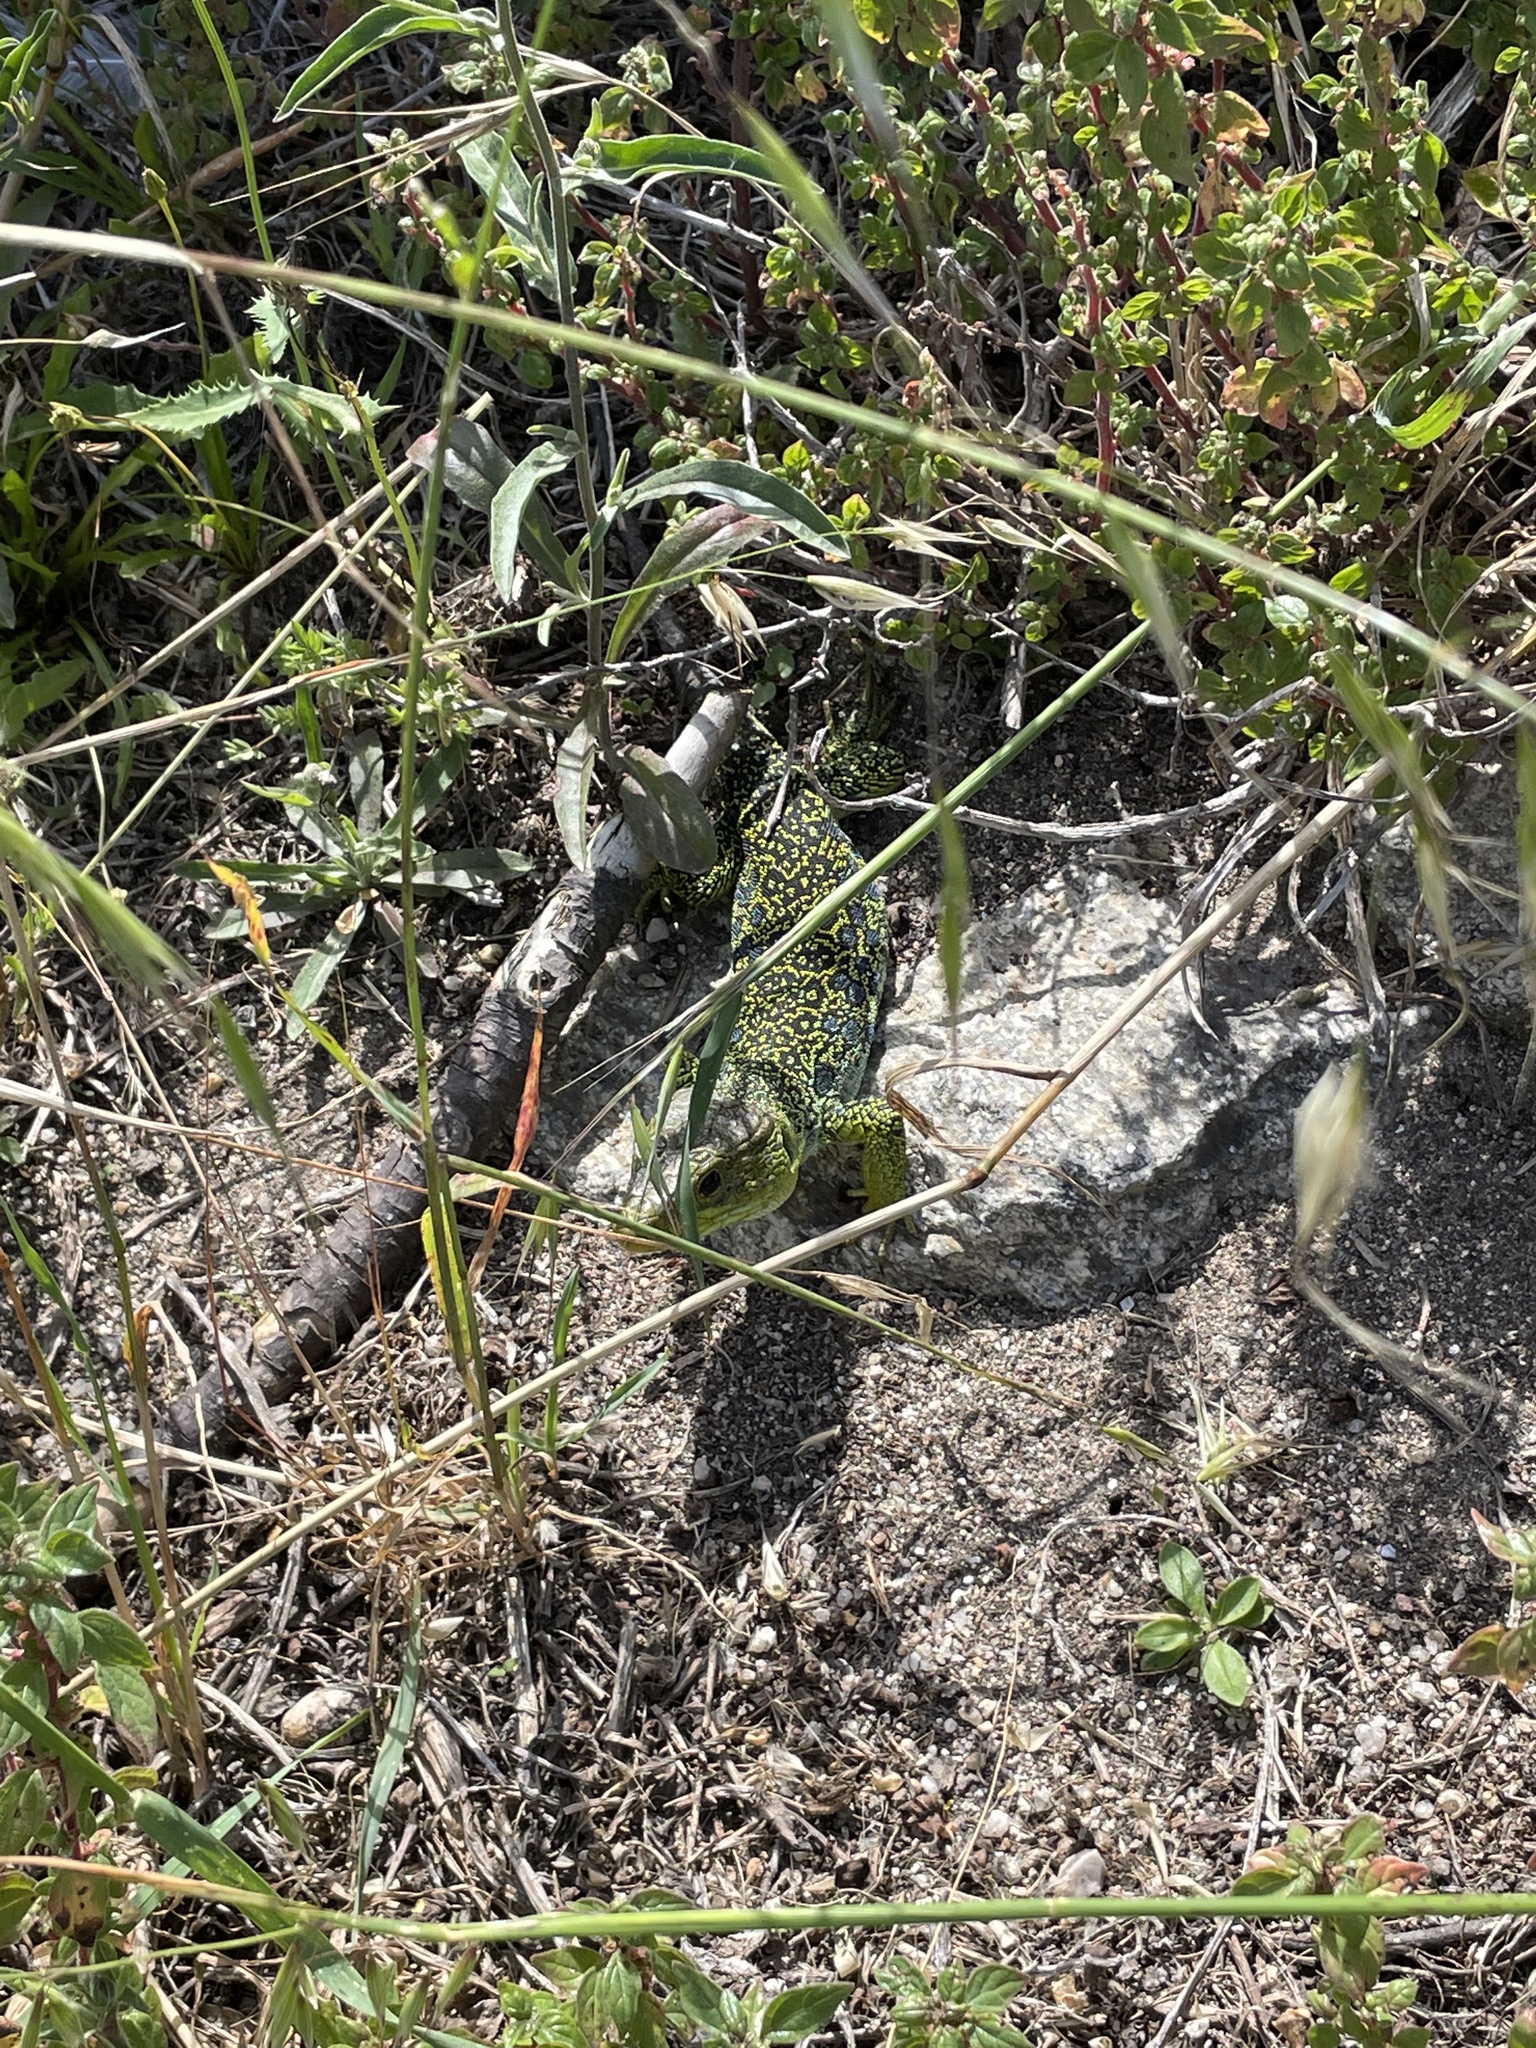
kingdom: Animalia
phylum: Chordata
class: Squamata
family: Lacertidae
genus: Timon
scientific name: Timon lepidus
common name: Ocellated lizard
